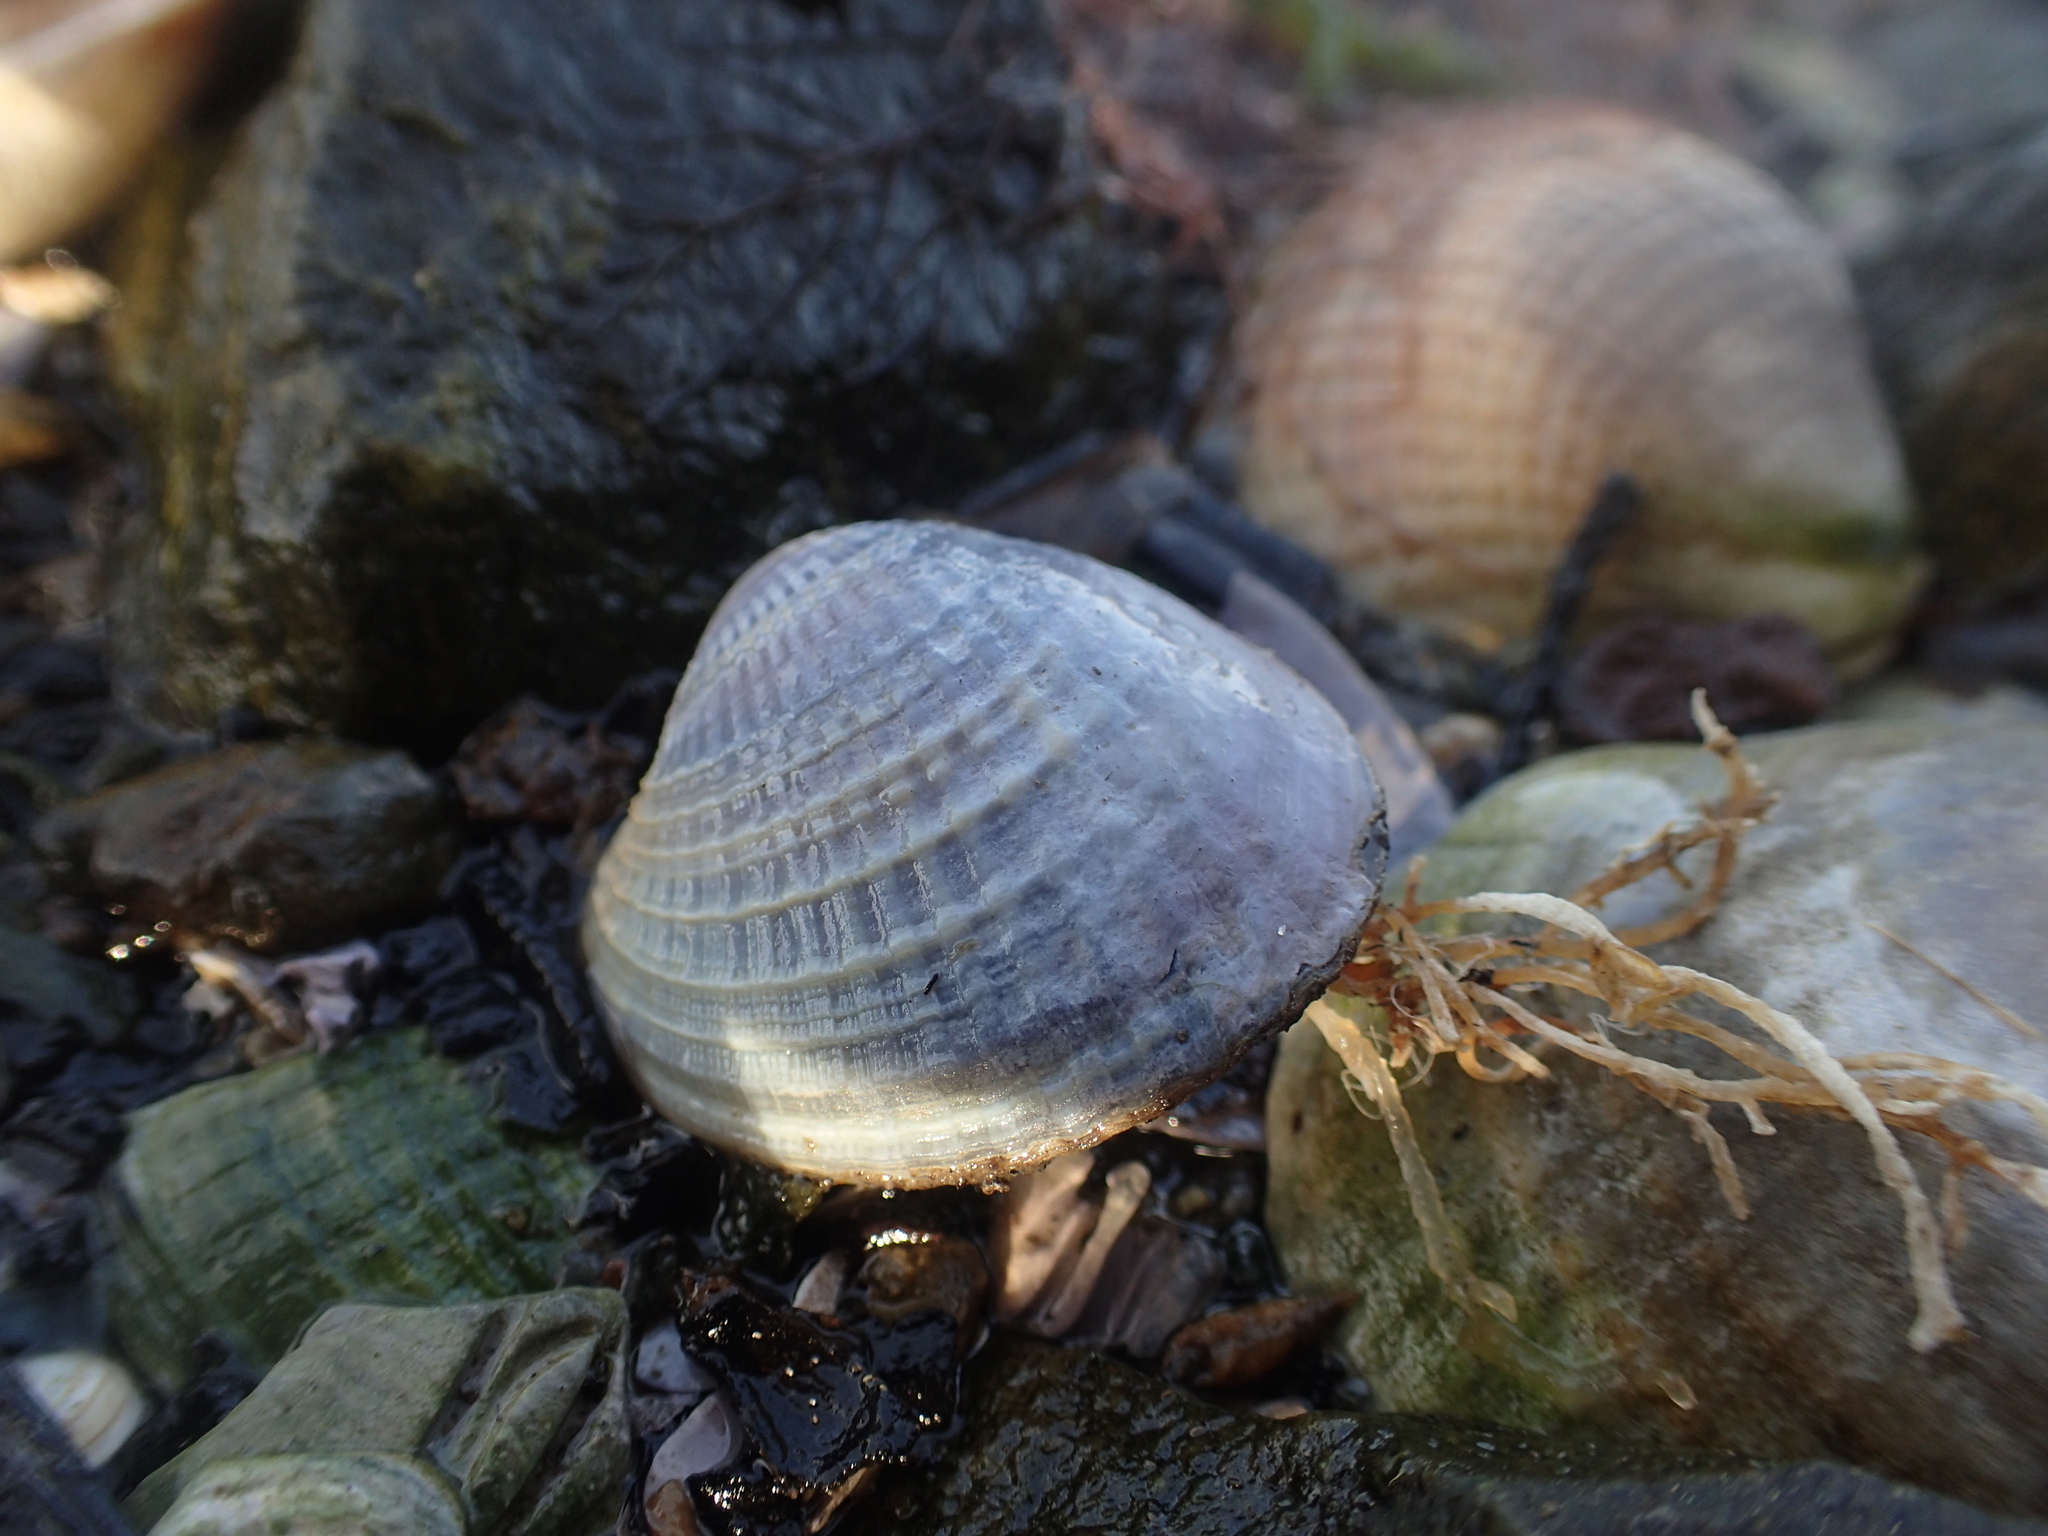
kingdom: Animalia
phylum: Mollusca
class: Bivalvia
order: Venerida
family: Veneridae
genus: Austrovenus
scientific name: Austrovenus stutchburyi
